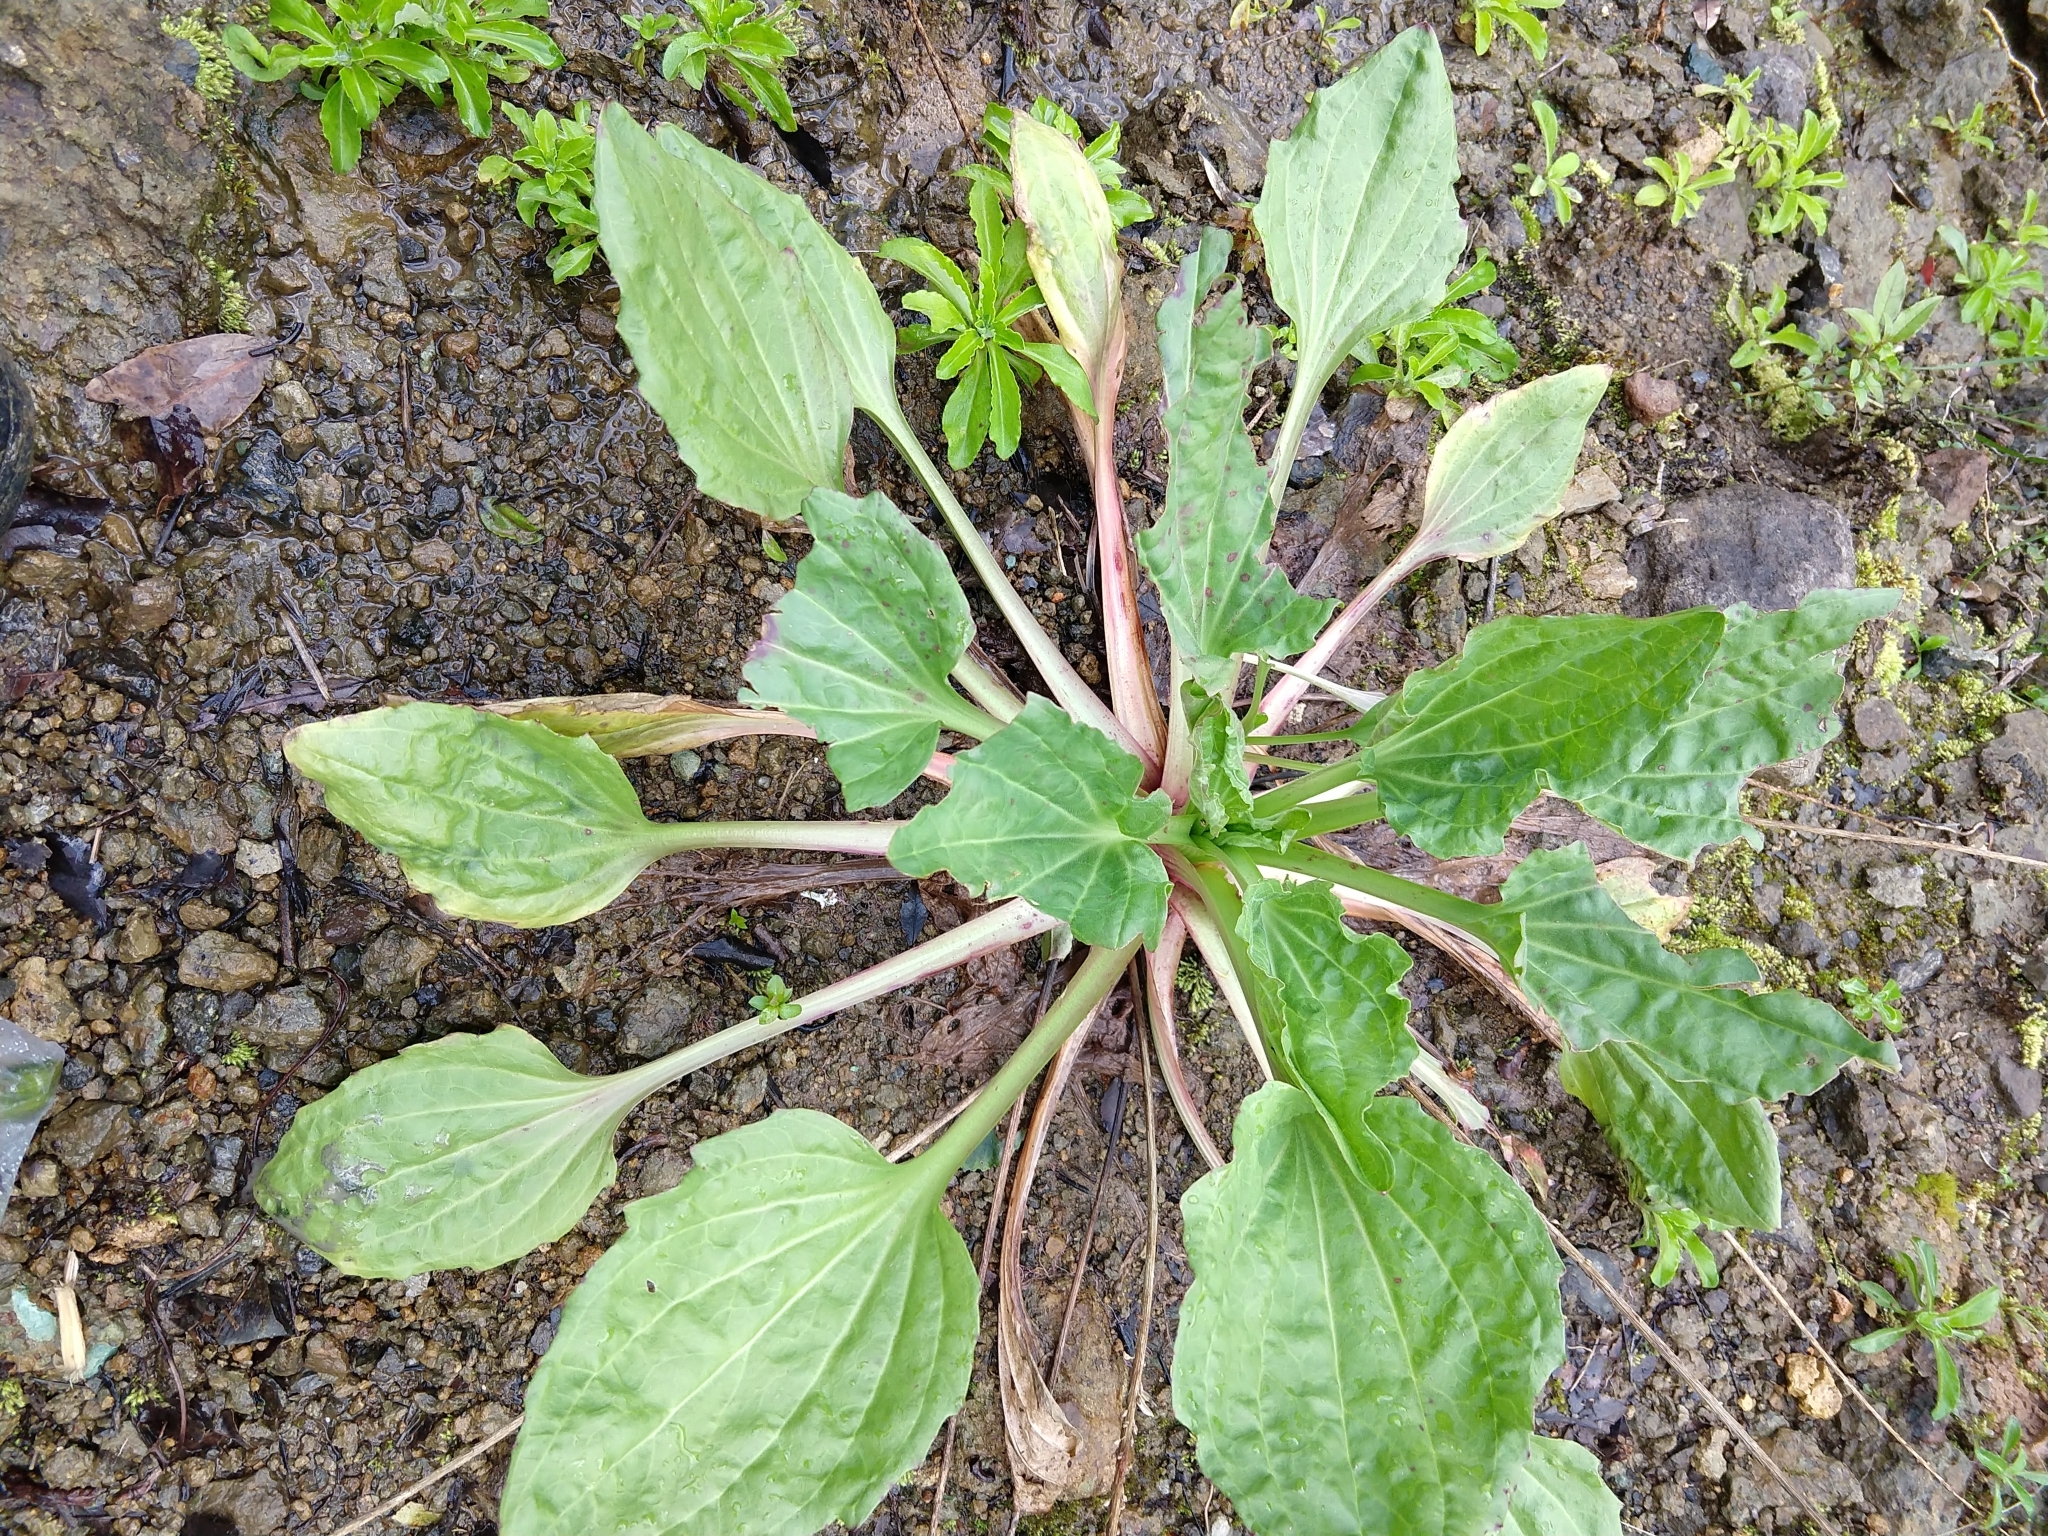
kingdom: Plantae
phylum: Tracheophyta
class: Magnoliopsida
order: Lamiales
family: Plantaginaceae
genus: Plantago
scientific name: Plantago major
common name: Common plantain
